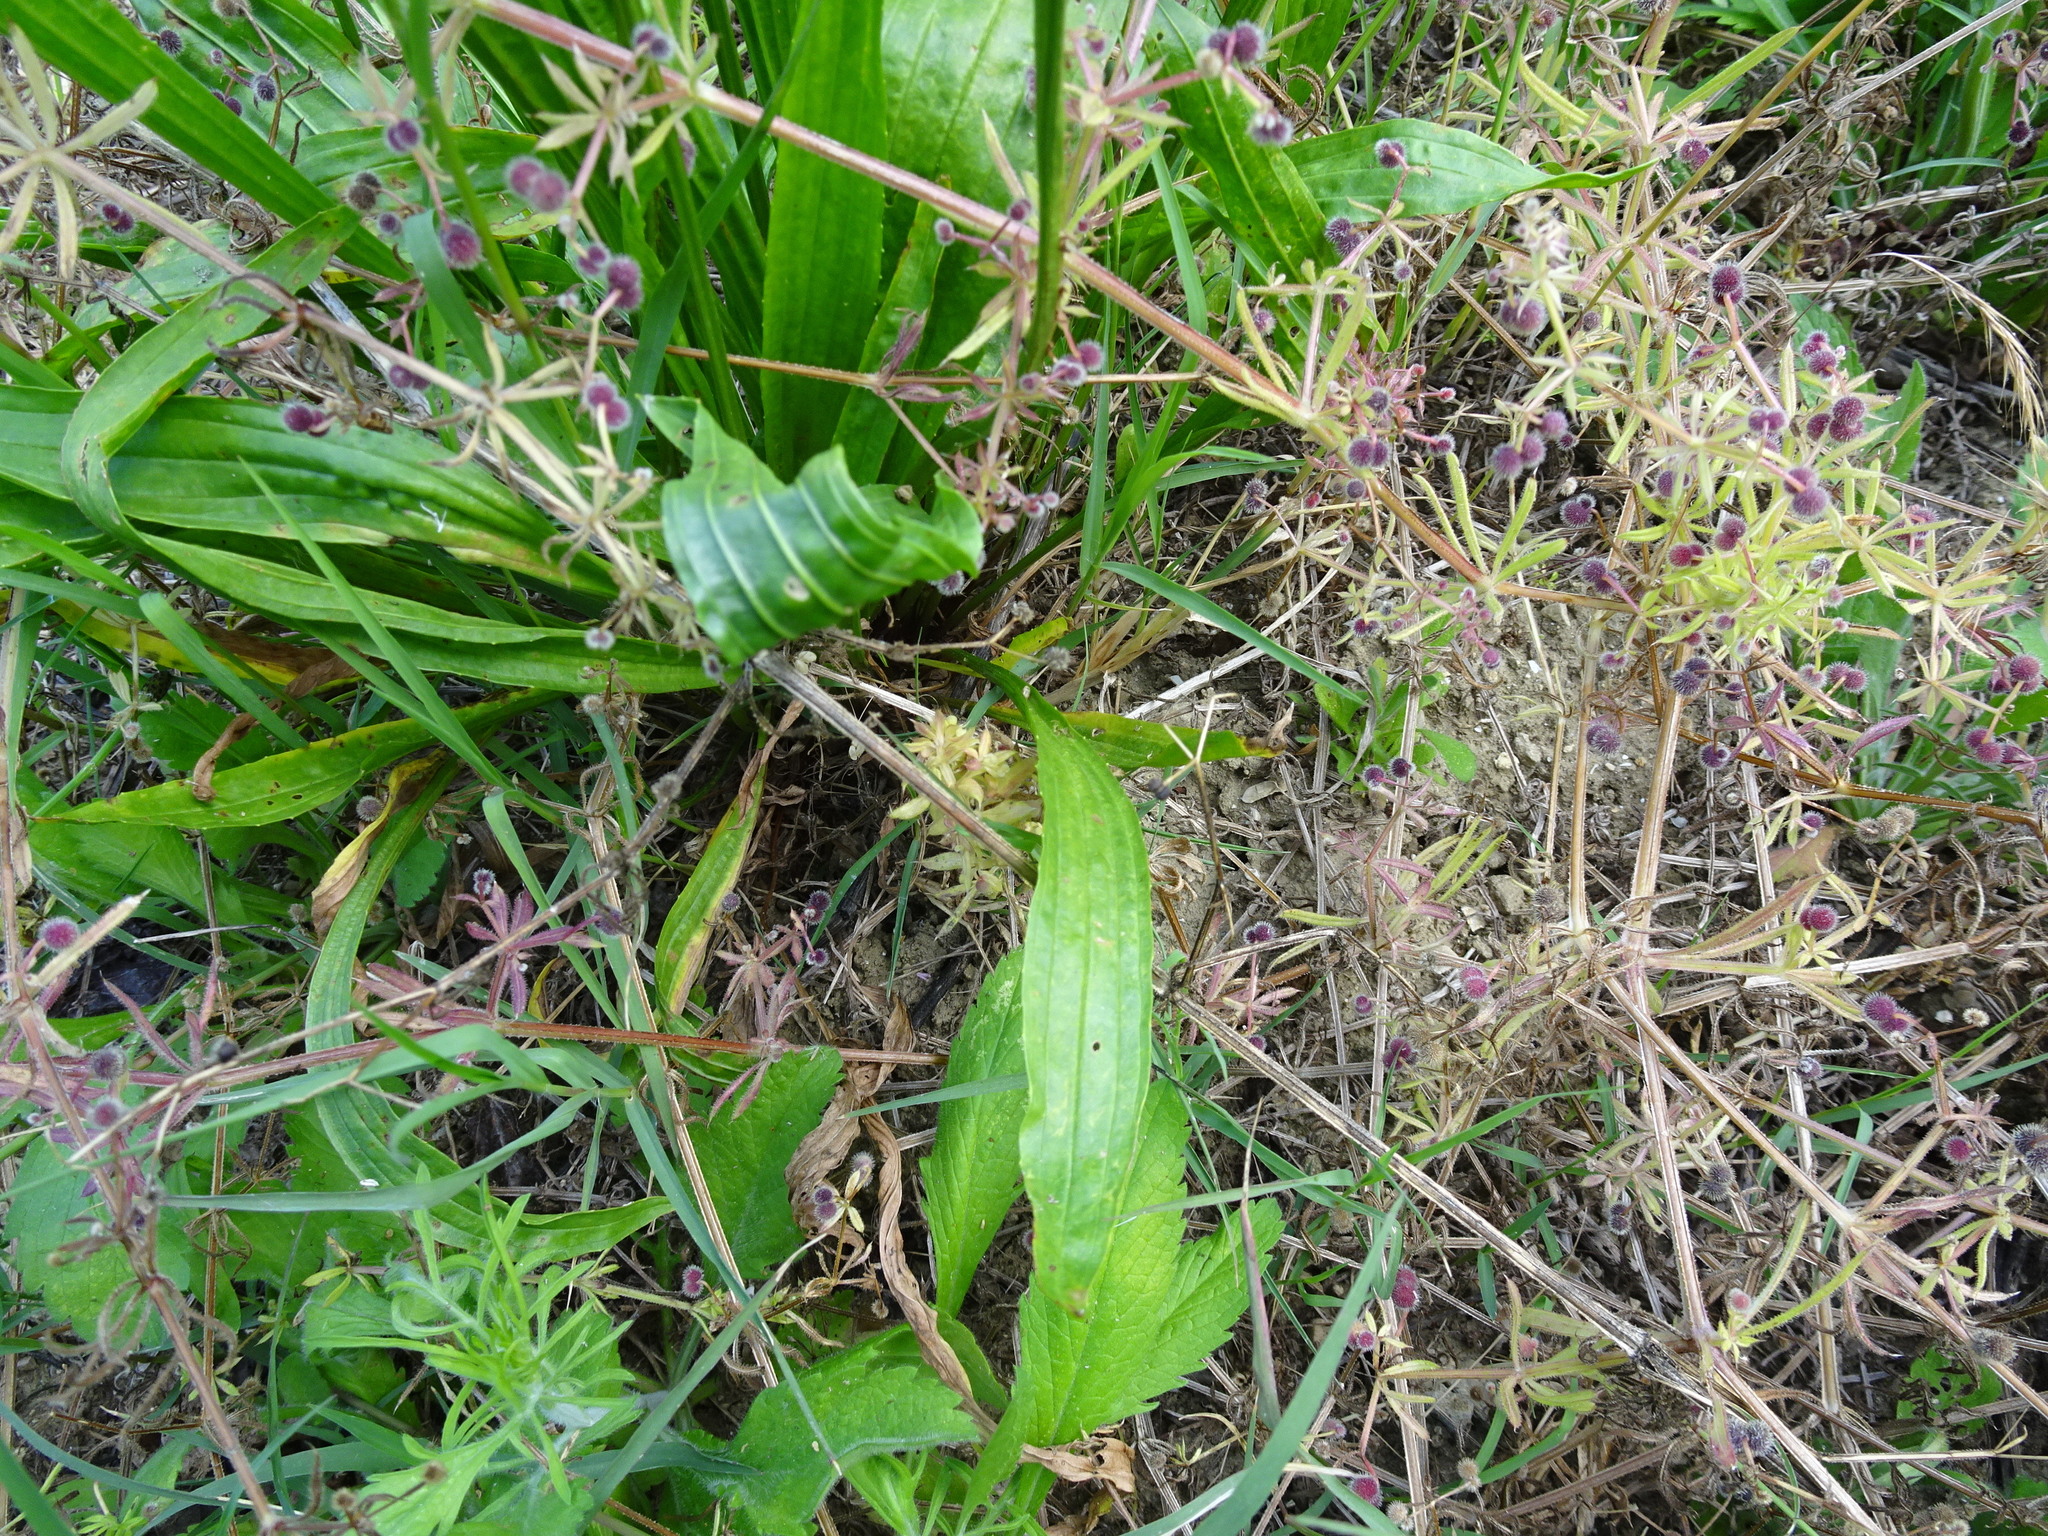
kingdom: Plantae
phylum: Tracheophyta
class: Magnoliopsida
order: Lamiales
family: Plantaginaceae
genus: Plantago
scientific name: Plantago lanceolata
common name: Ribwort plantain
